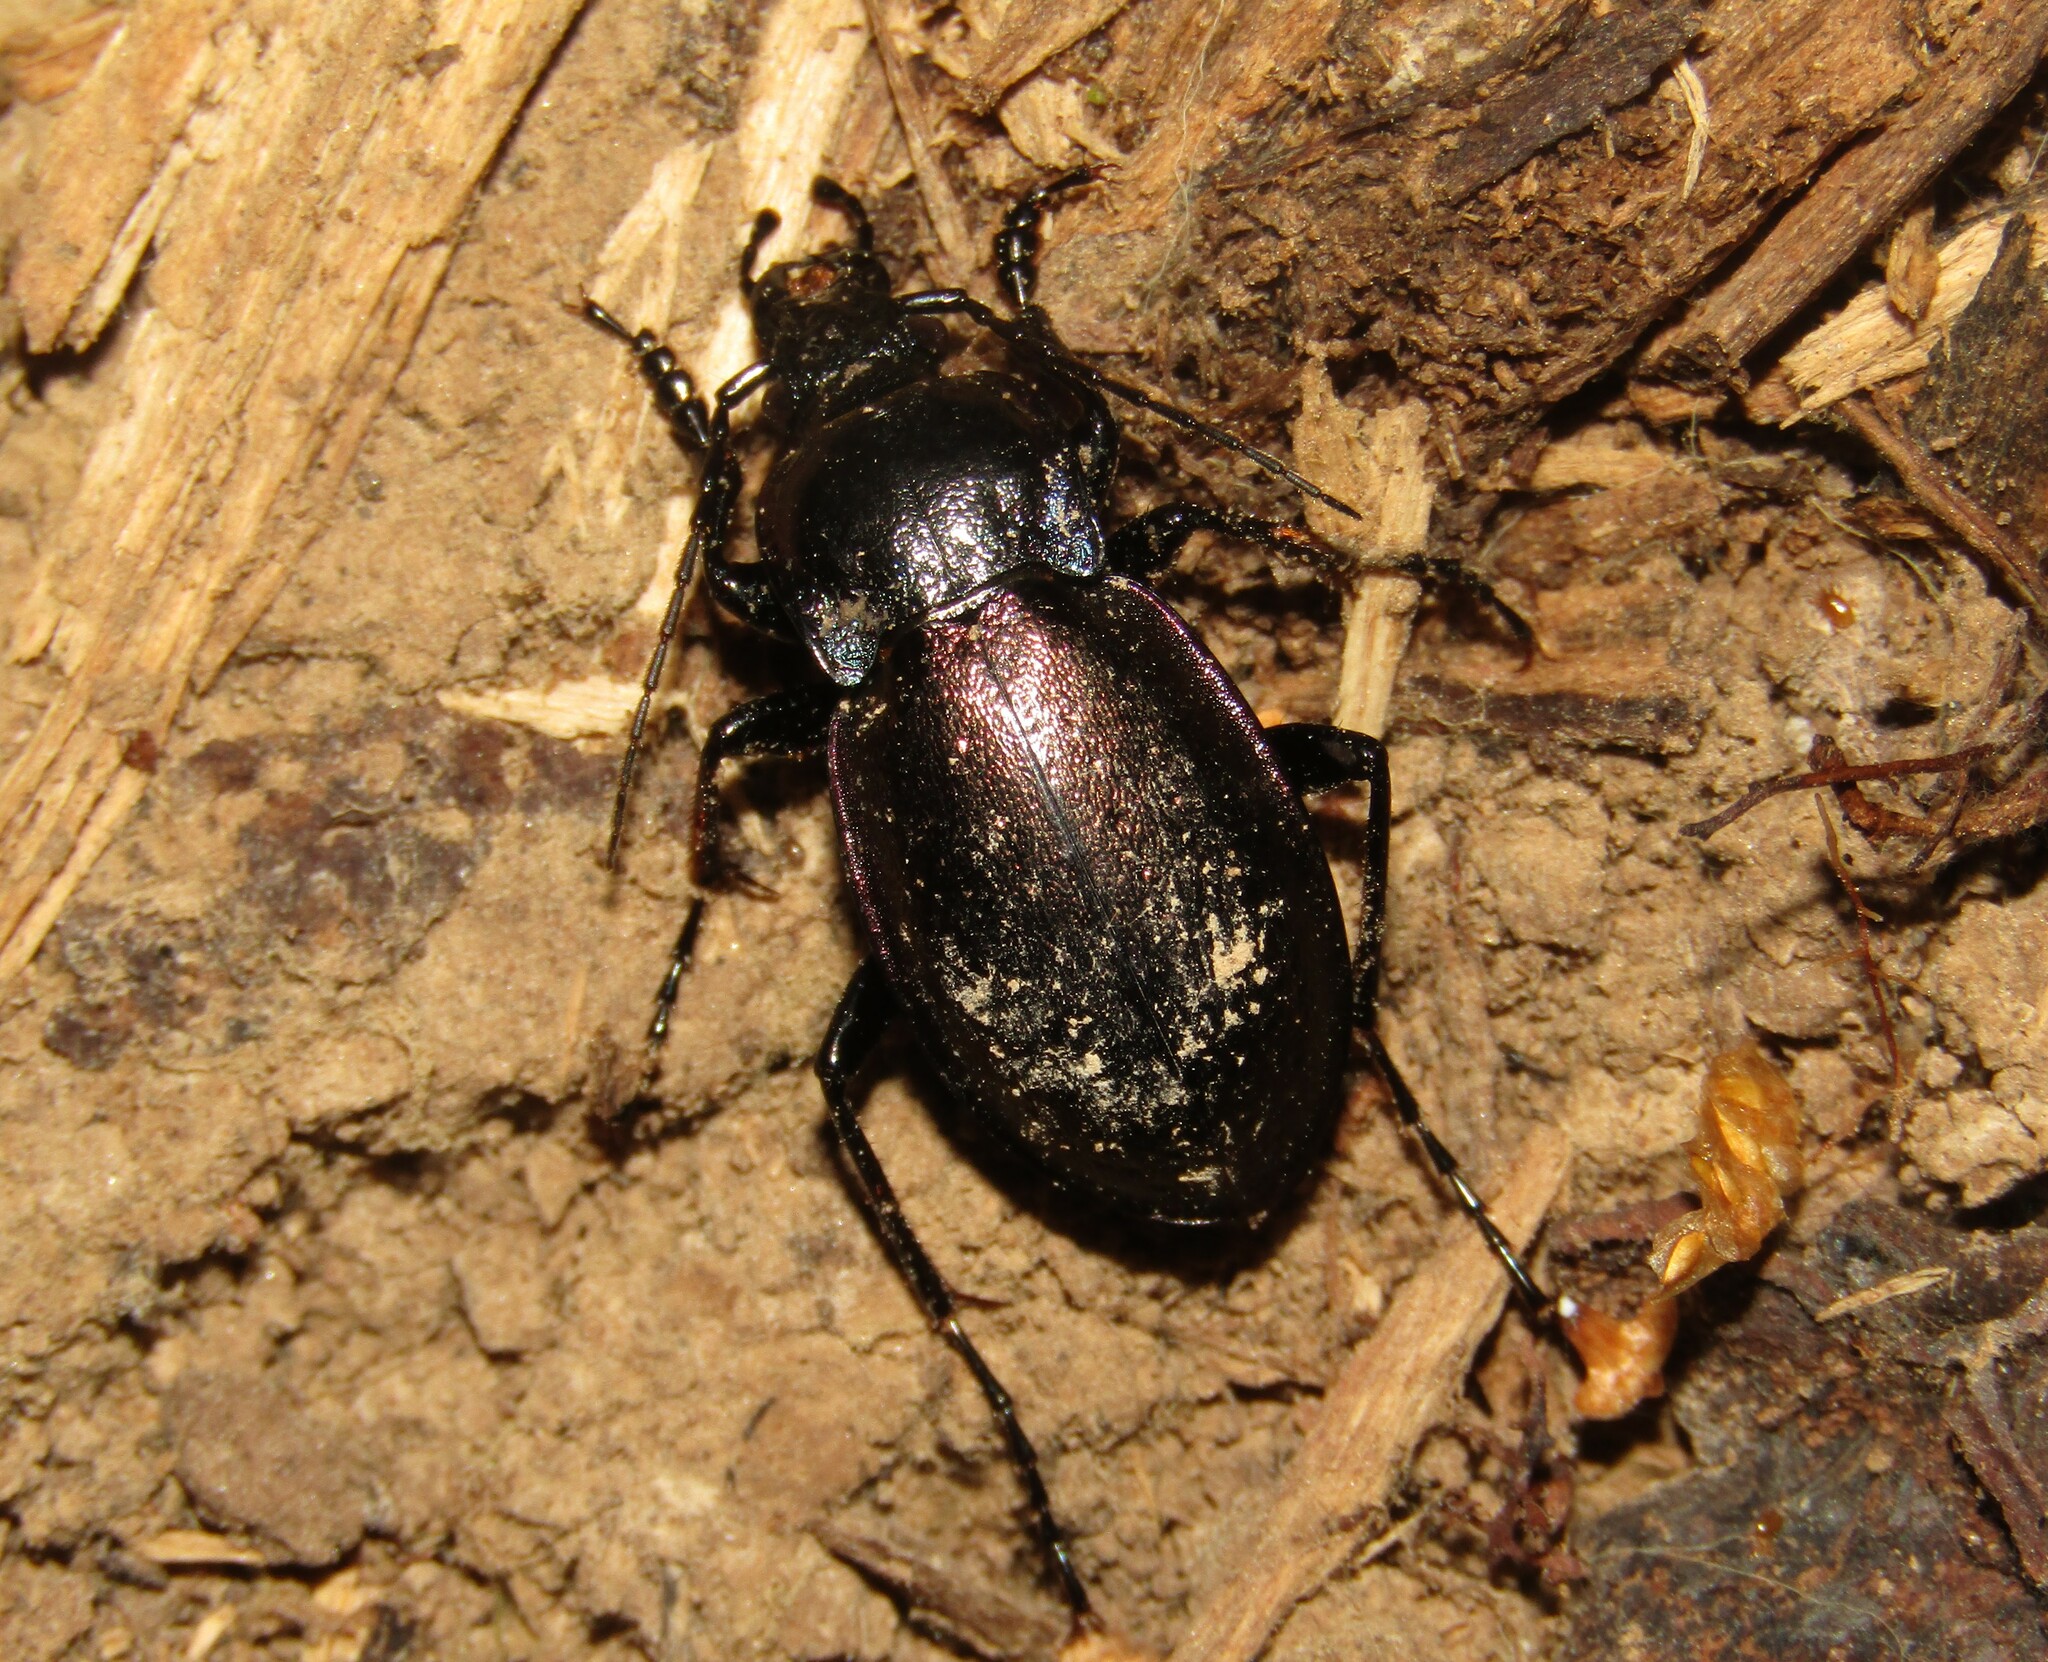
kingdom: Animalia
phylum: Arthropoda
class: Insecta
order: Coleoptera
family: Carabidae
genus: Carabus
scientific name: Carabus nemoralis
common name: European ground beetle
